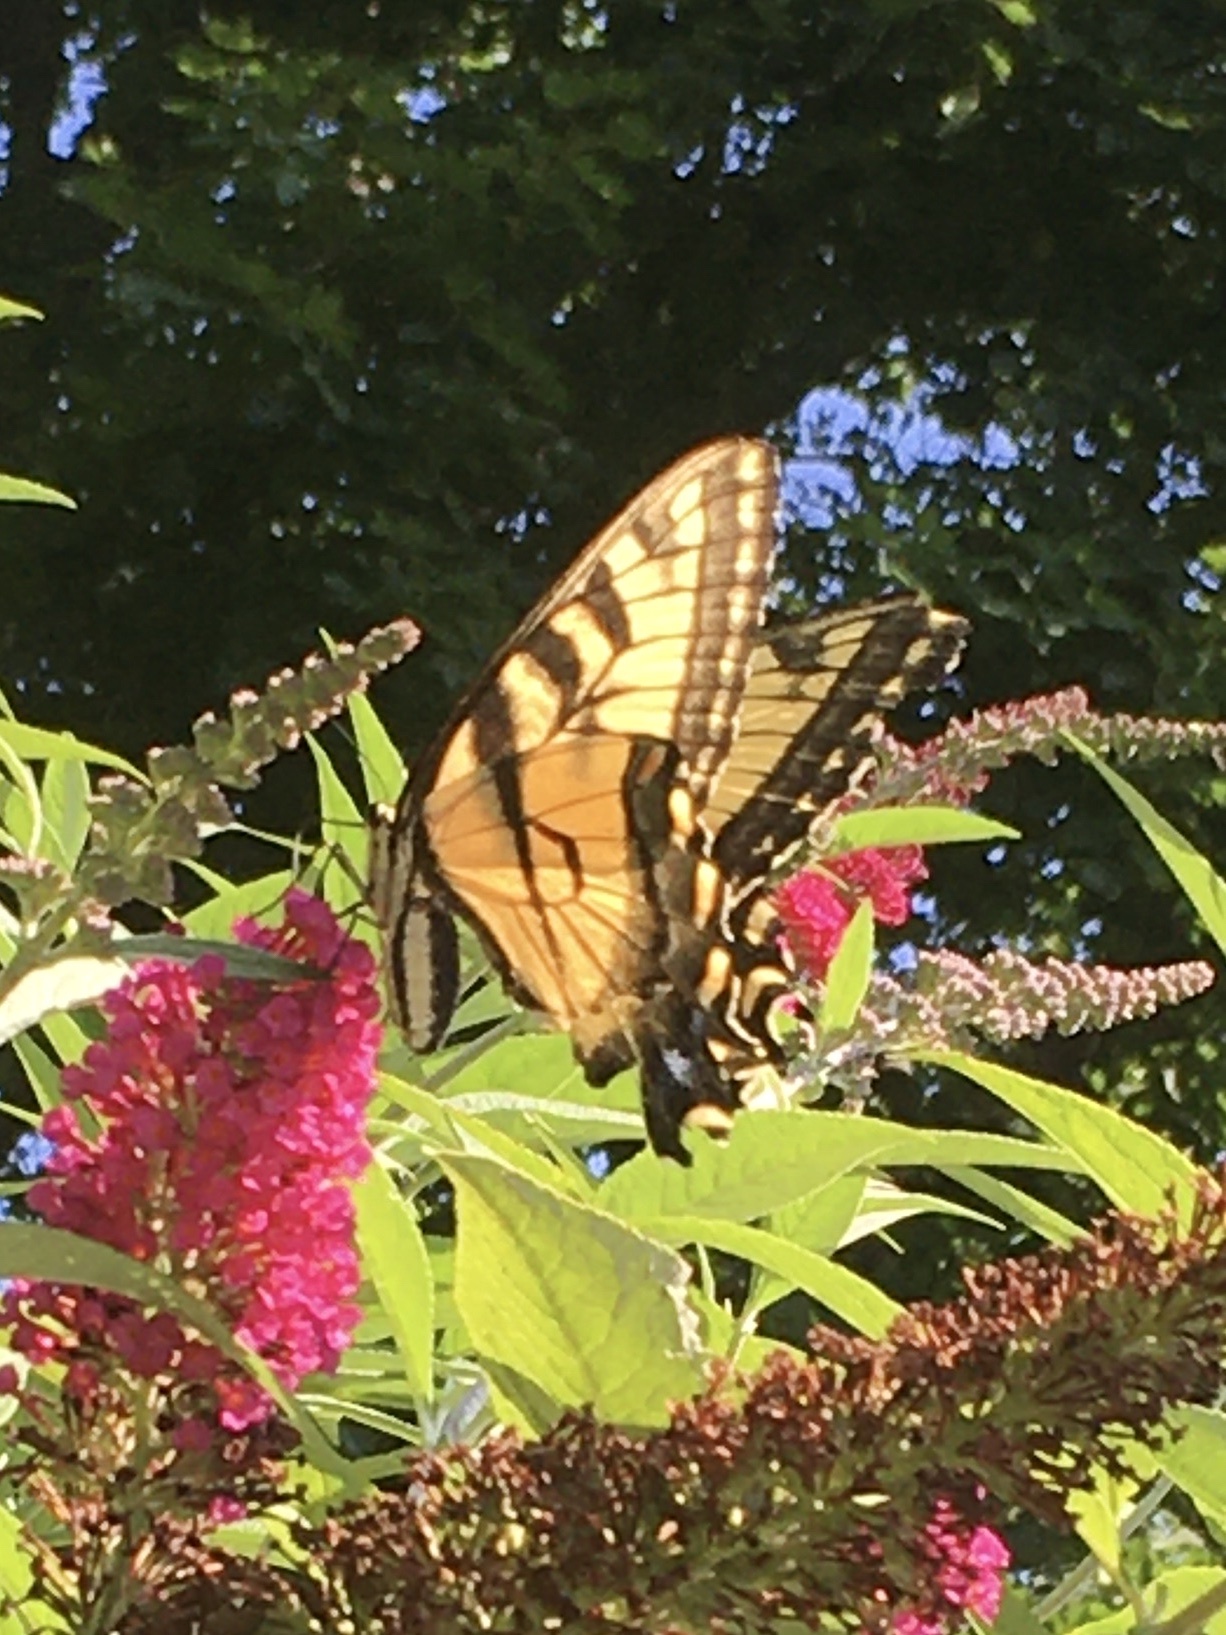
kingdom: Animalia
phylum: Arthropoda
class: Insecta
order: Lepidoptera
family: Papilionidae
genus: Papilio
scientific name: Papilio glaucus
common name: Tiger swallowtail
